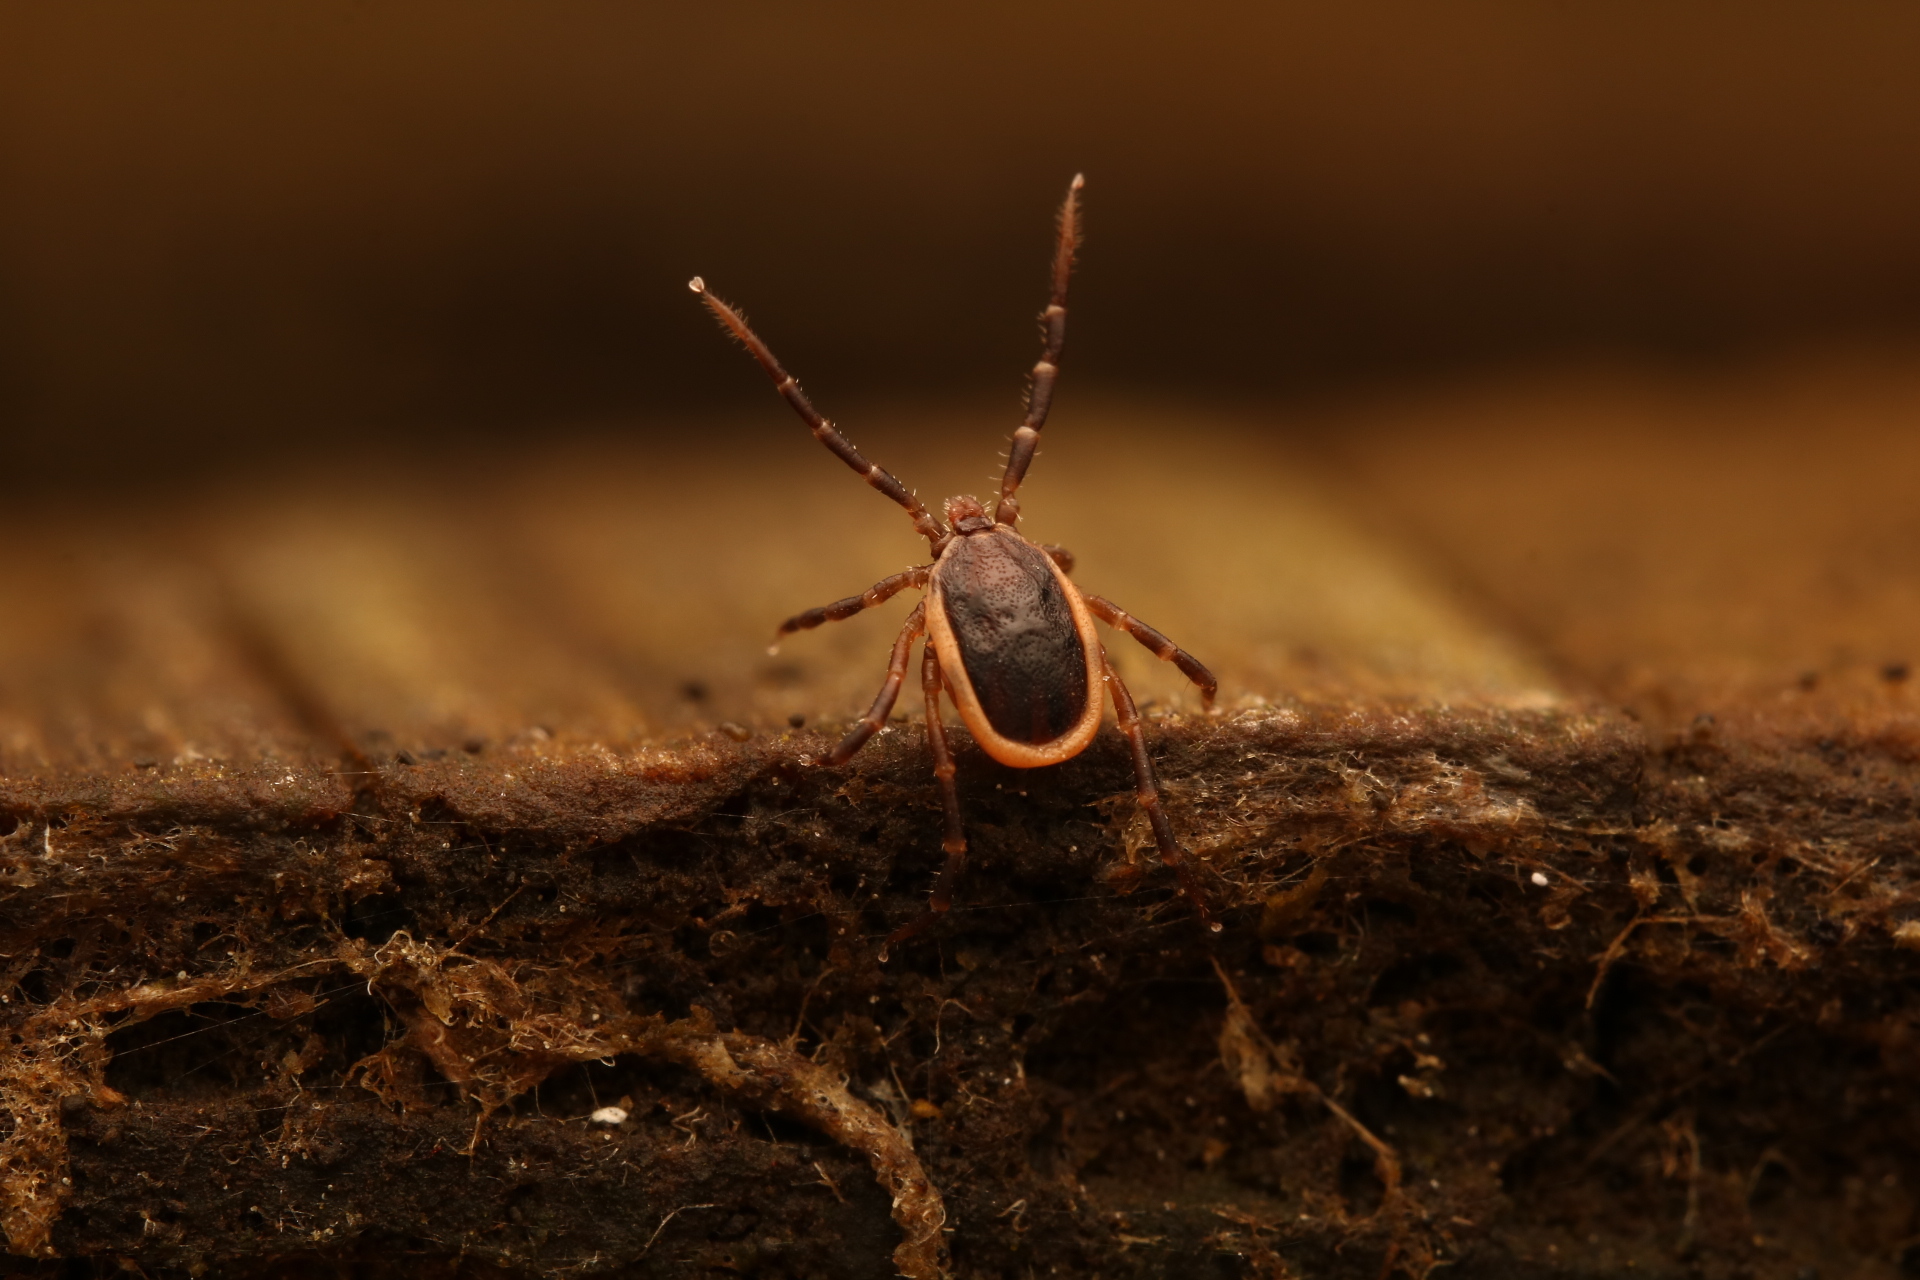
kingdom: Animalia
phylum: Arthropoda
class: Arachnida
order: Ixodida
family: Ixodidae
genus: Ixodes
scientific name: Ixodes scapularis
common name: Black legged tick
